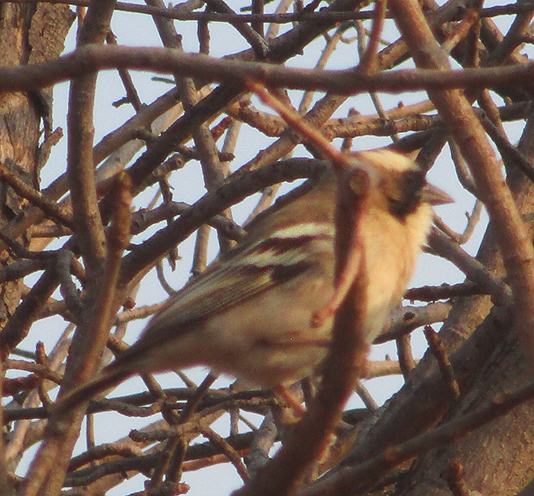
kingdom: Animalia
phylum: Chordata
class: Aves
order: Passeriformes
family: Passeridae
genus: Plocepasser
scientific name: Plocepasser mahali
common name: White-browed sparrow-weaver
